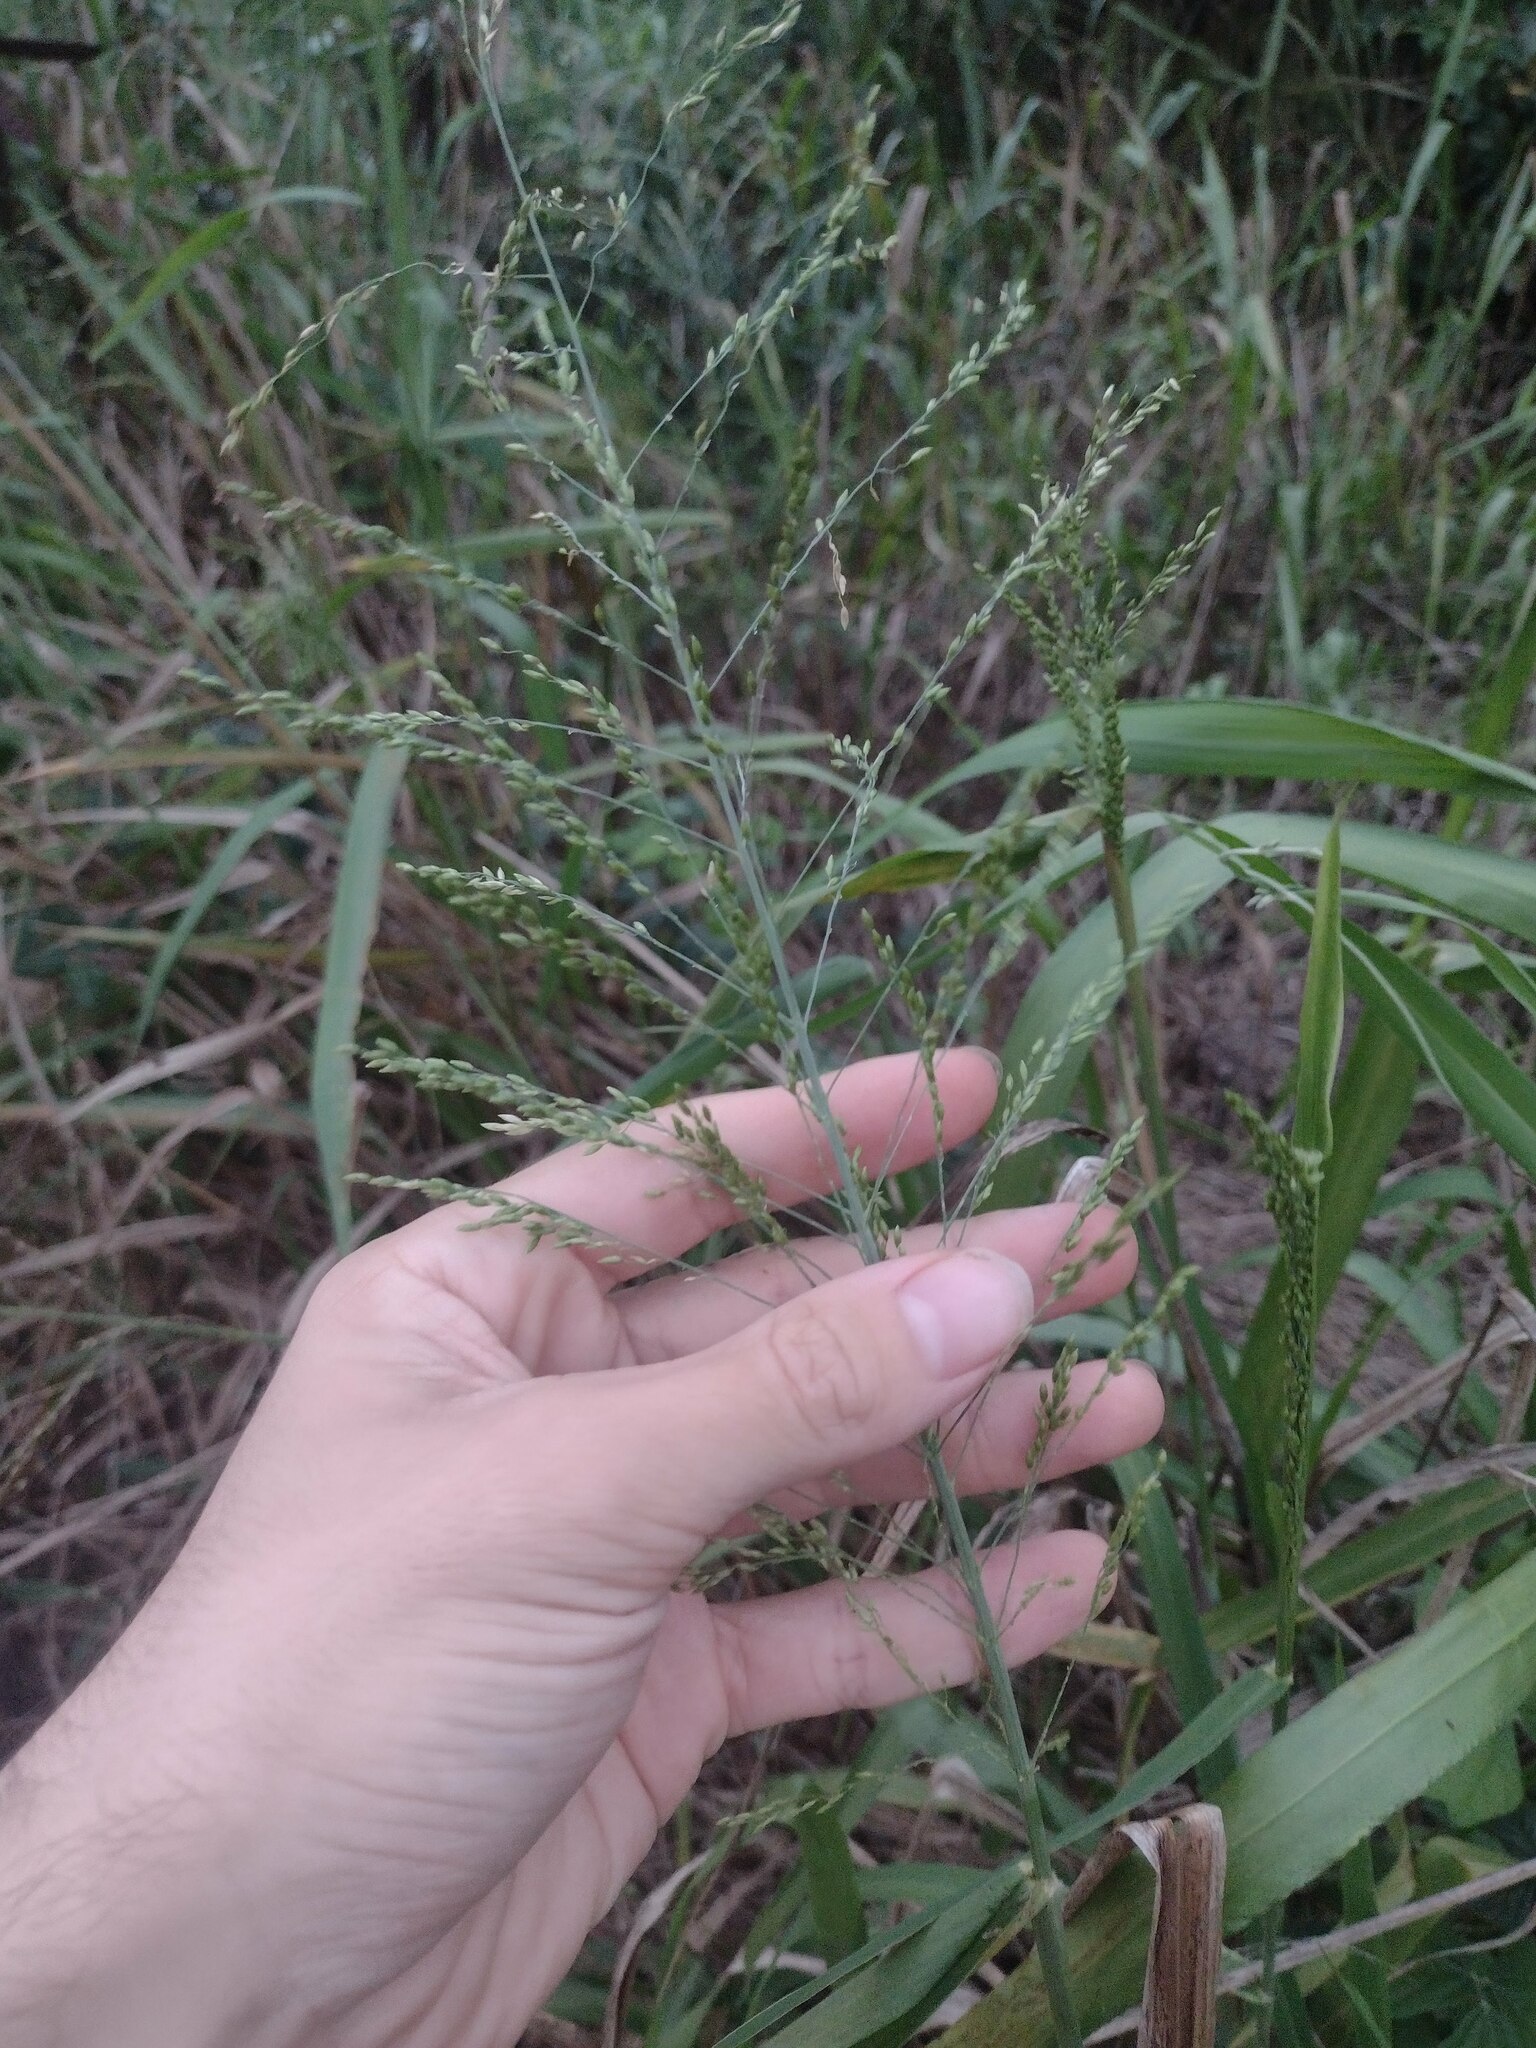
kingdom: Plantae
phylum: Tracheophyta
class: Liliopsida
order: Poales
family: Poaceae
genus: Megathyrsus
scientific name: Megathyrsus maximus
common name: Guineagrass
